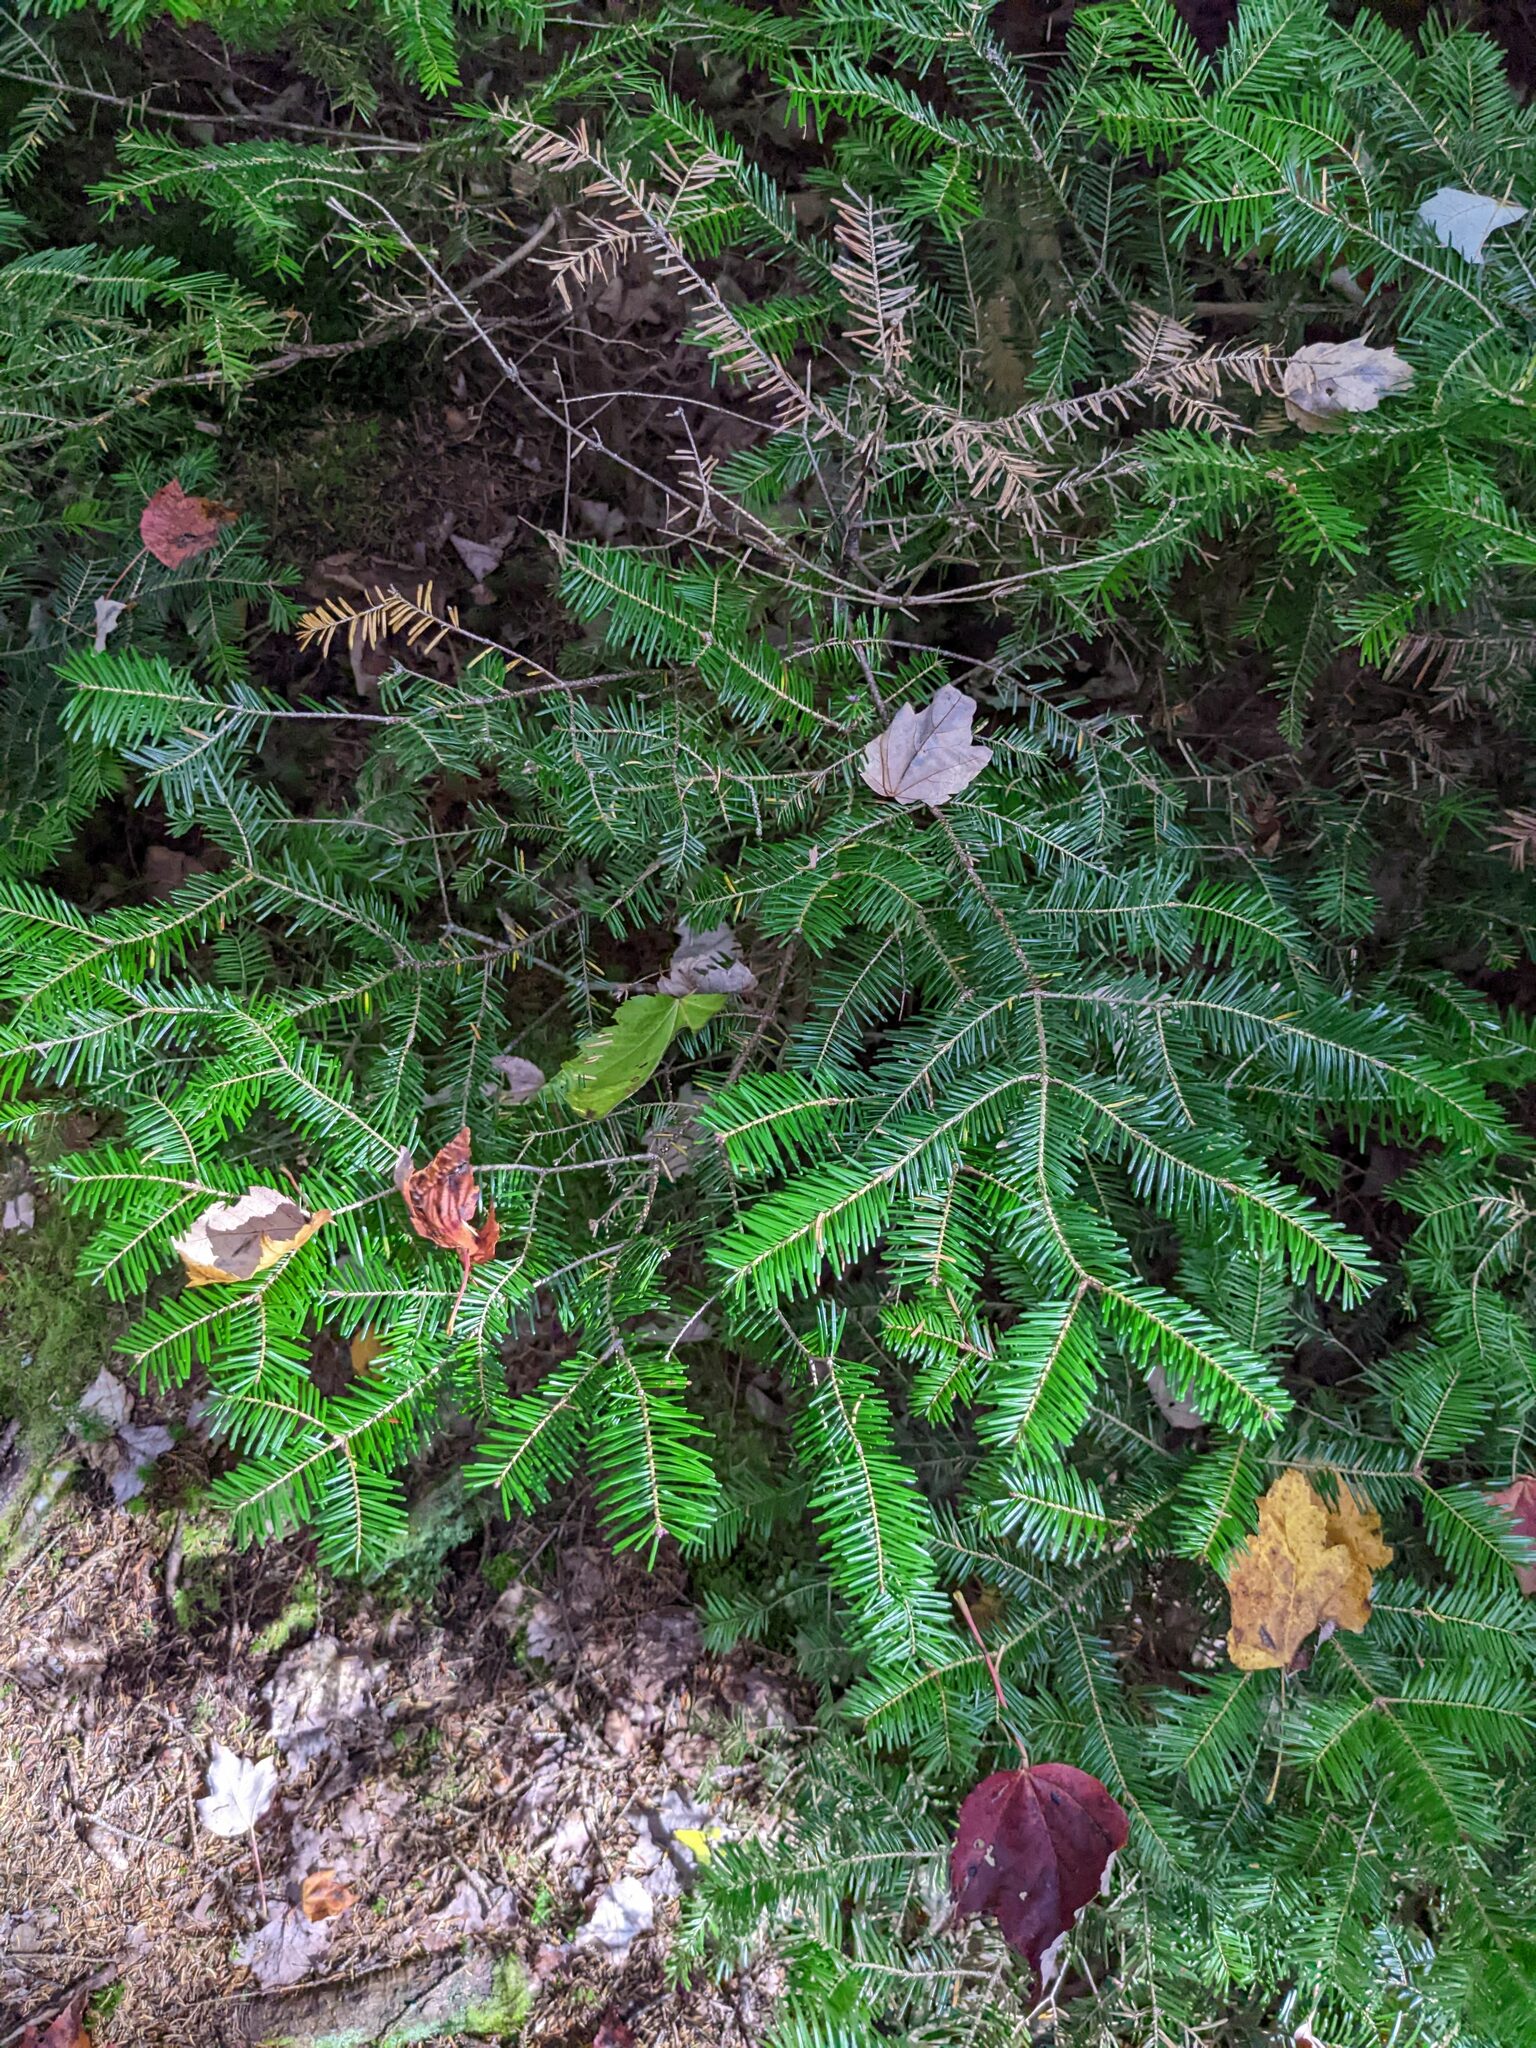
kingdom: Plantae
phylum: Tracheophyta
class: Pinopsida
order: Pinales
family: Pinaceae
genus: Abies
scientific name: Abies balsamea
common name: Balsam fir
